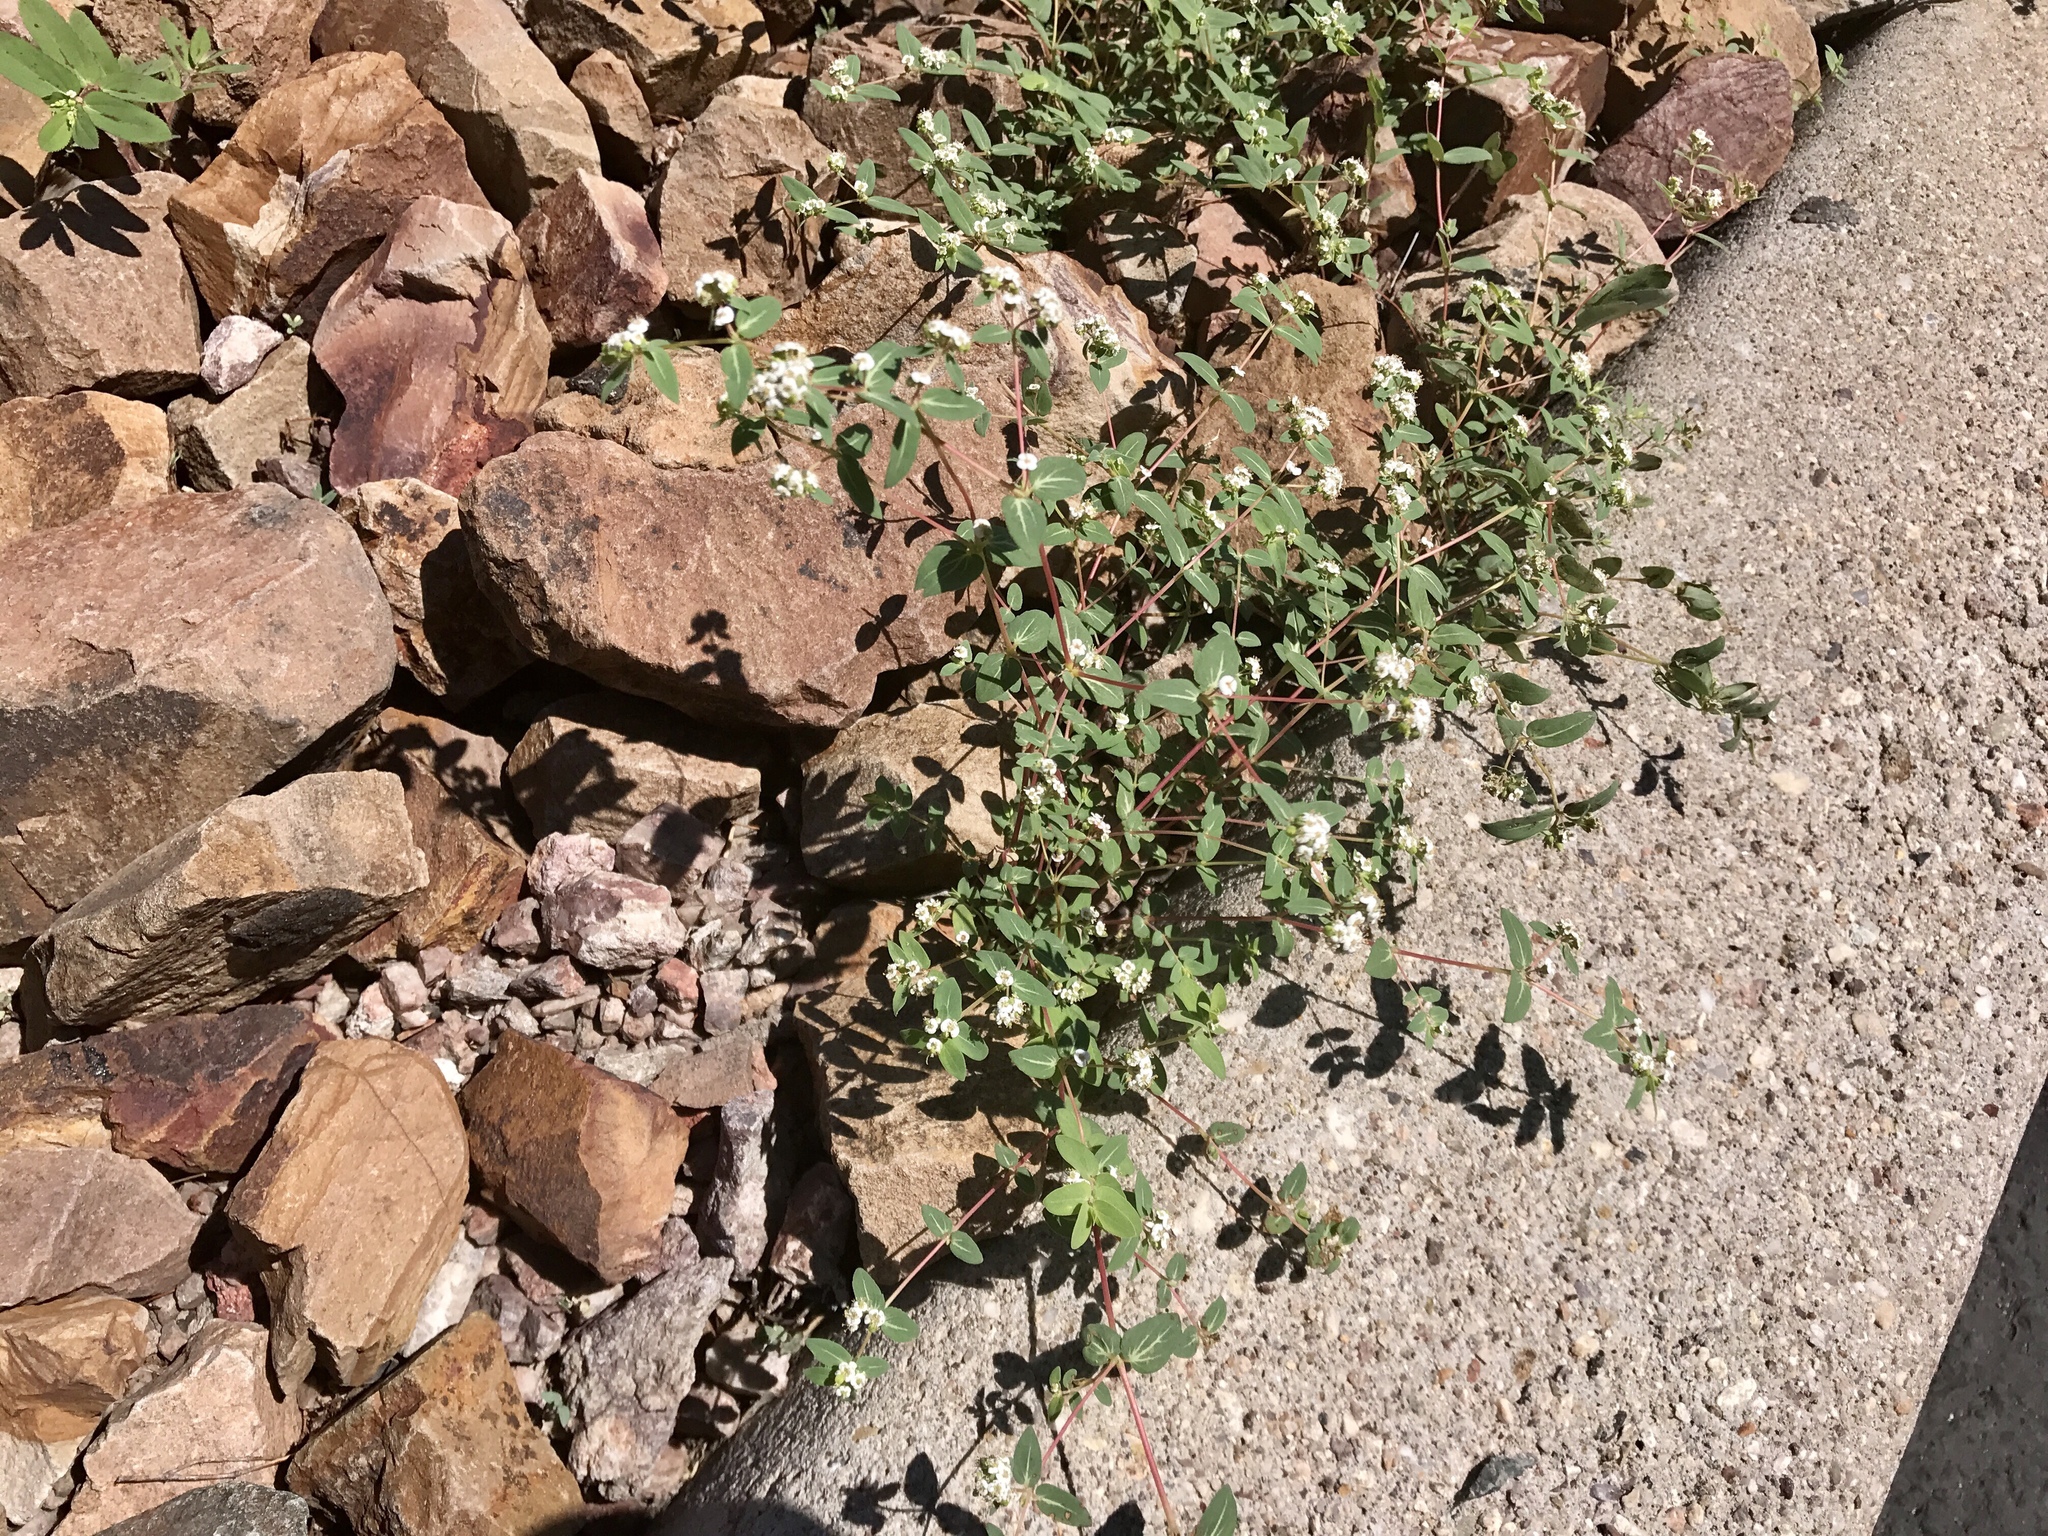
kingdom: Plantae
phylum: Tracheophyta
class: Magnoliopsida
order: Malpighiales
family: Euphorbiaceae
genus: Euphorbia
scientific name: Euphorbia capitellata
